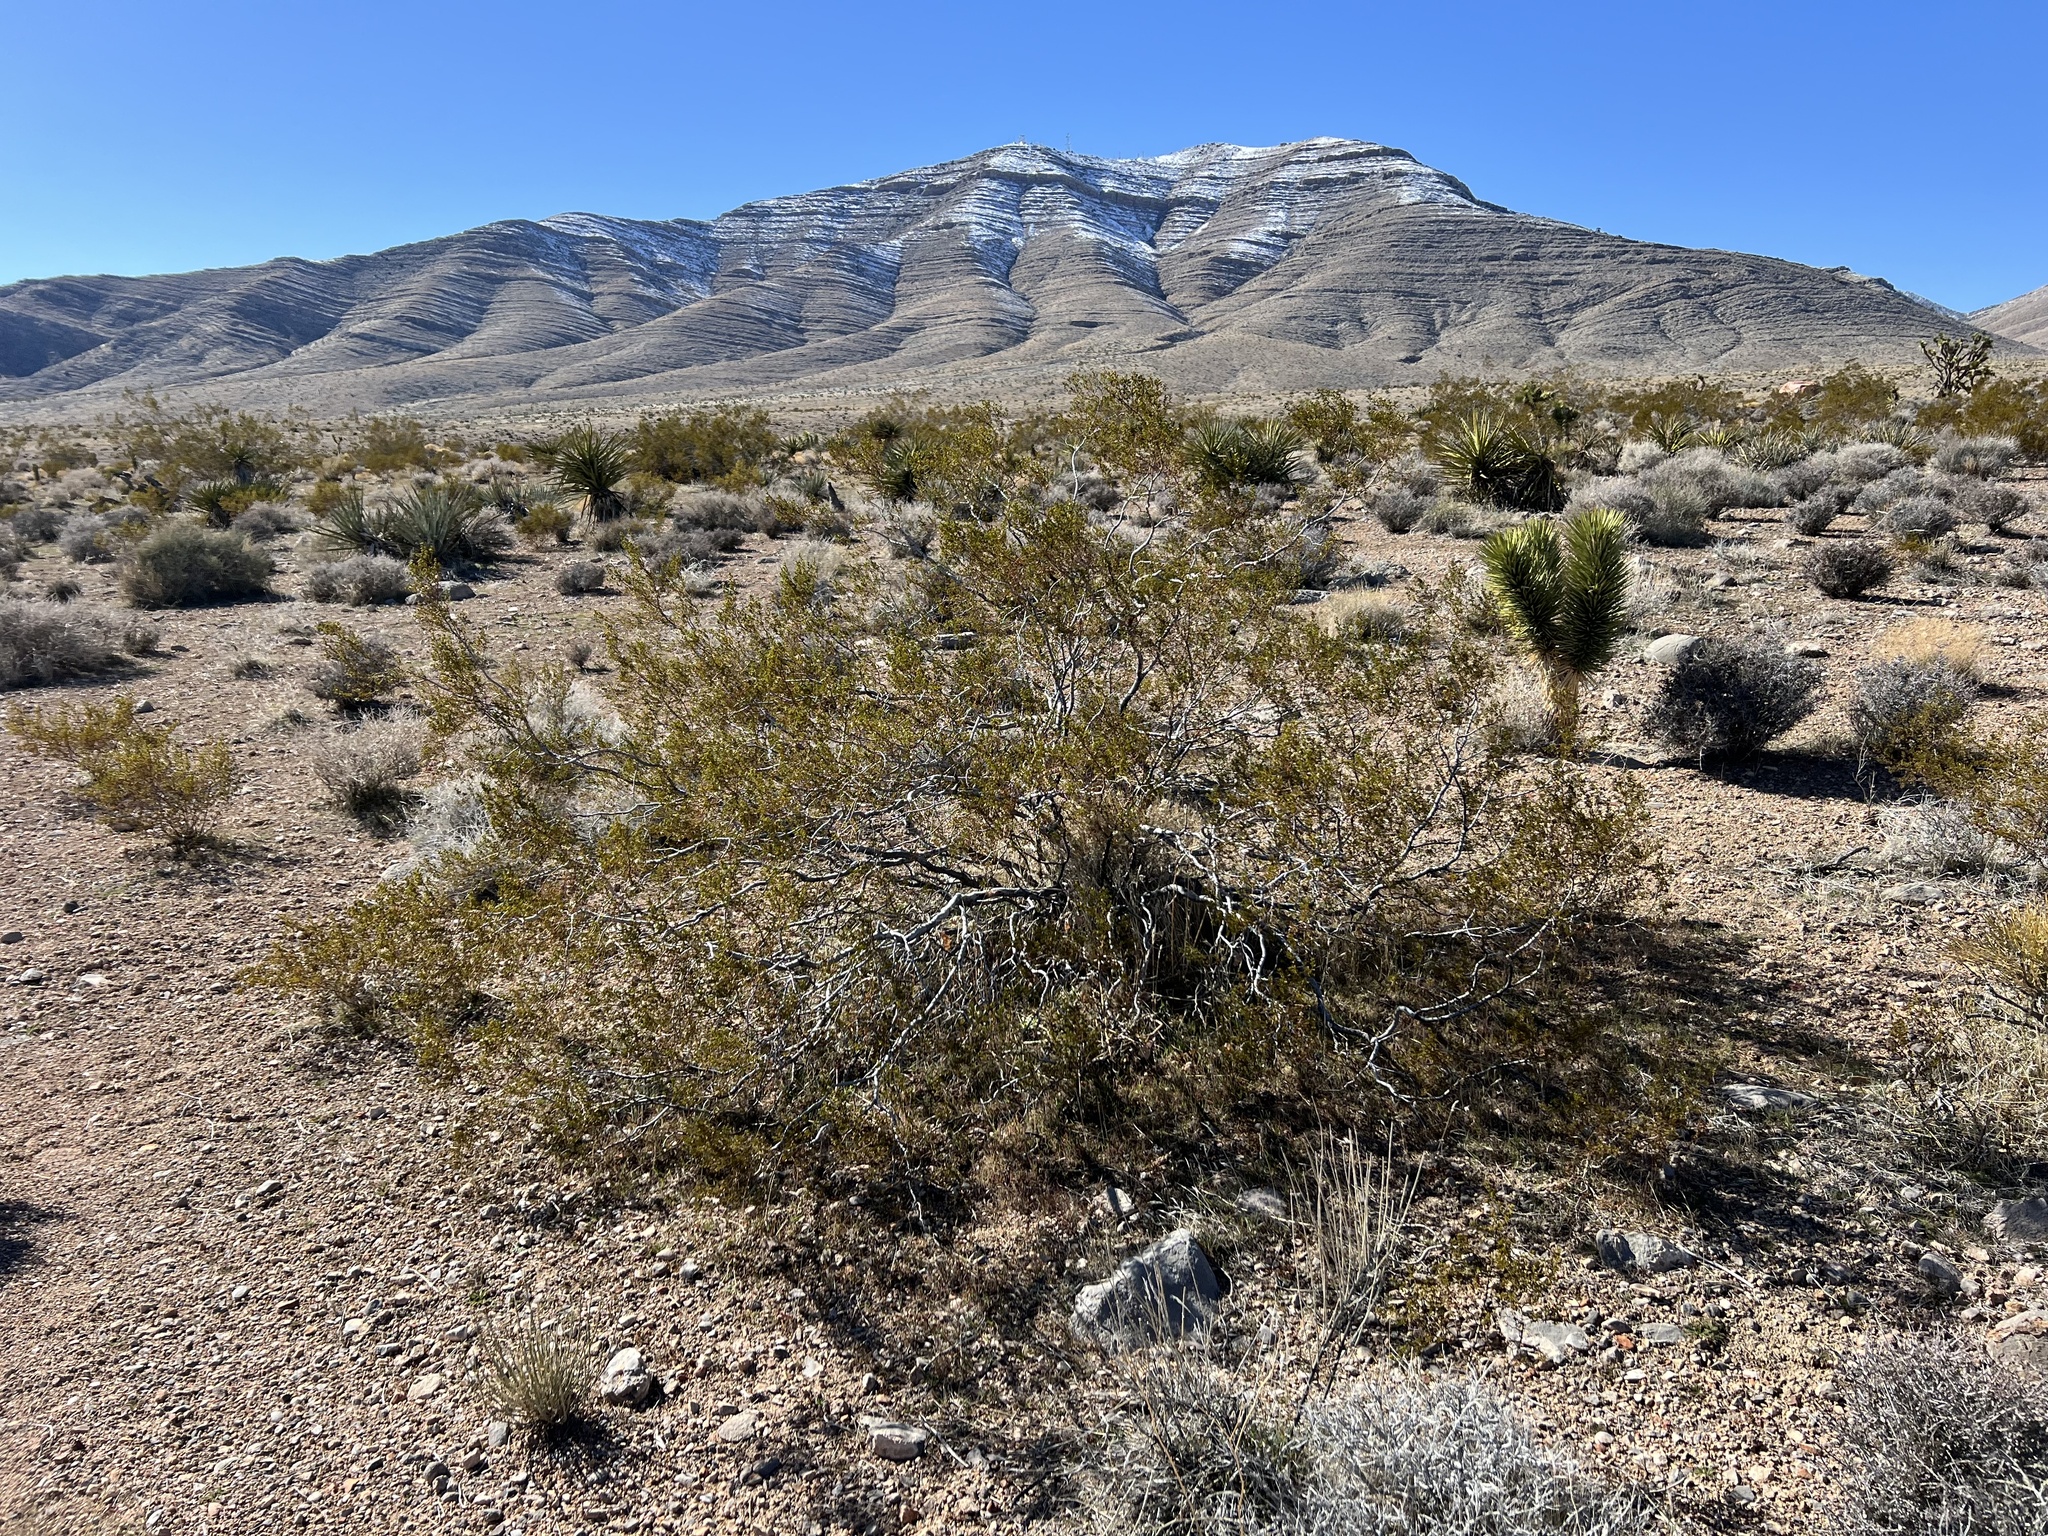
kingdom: Plantae
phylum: Tracheophyta
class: Magnoliopsida
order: Zygophyllales
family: Zygophyllaceae
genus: Larrea
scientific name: Larrea tridentata
